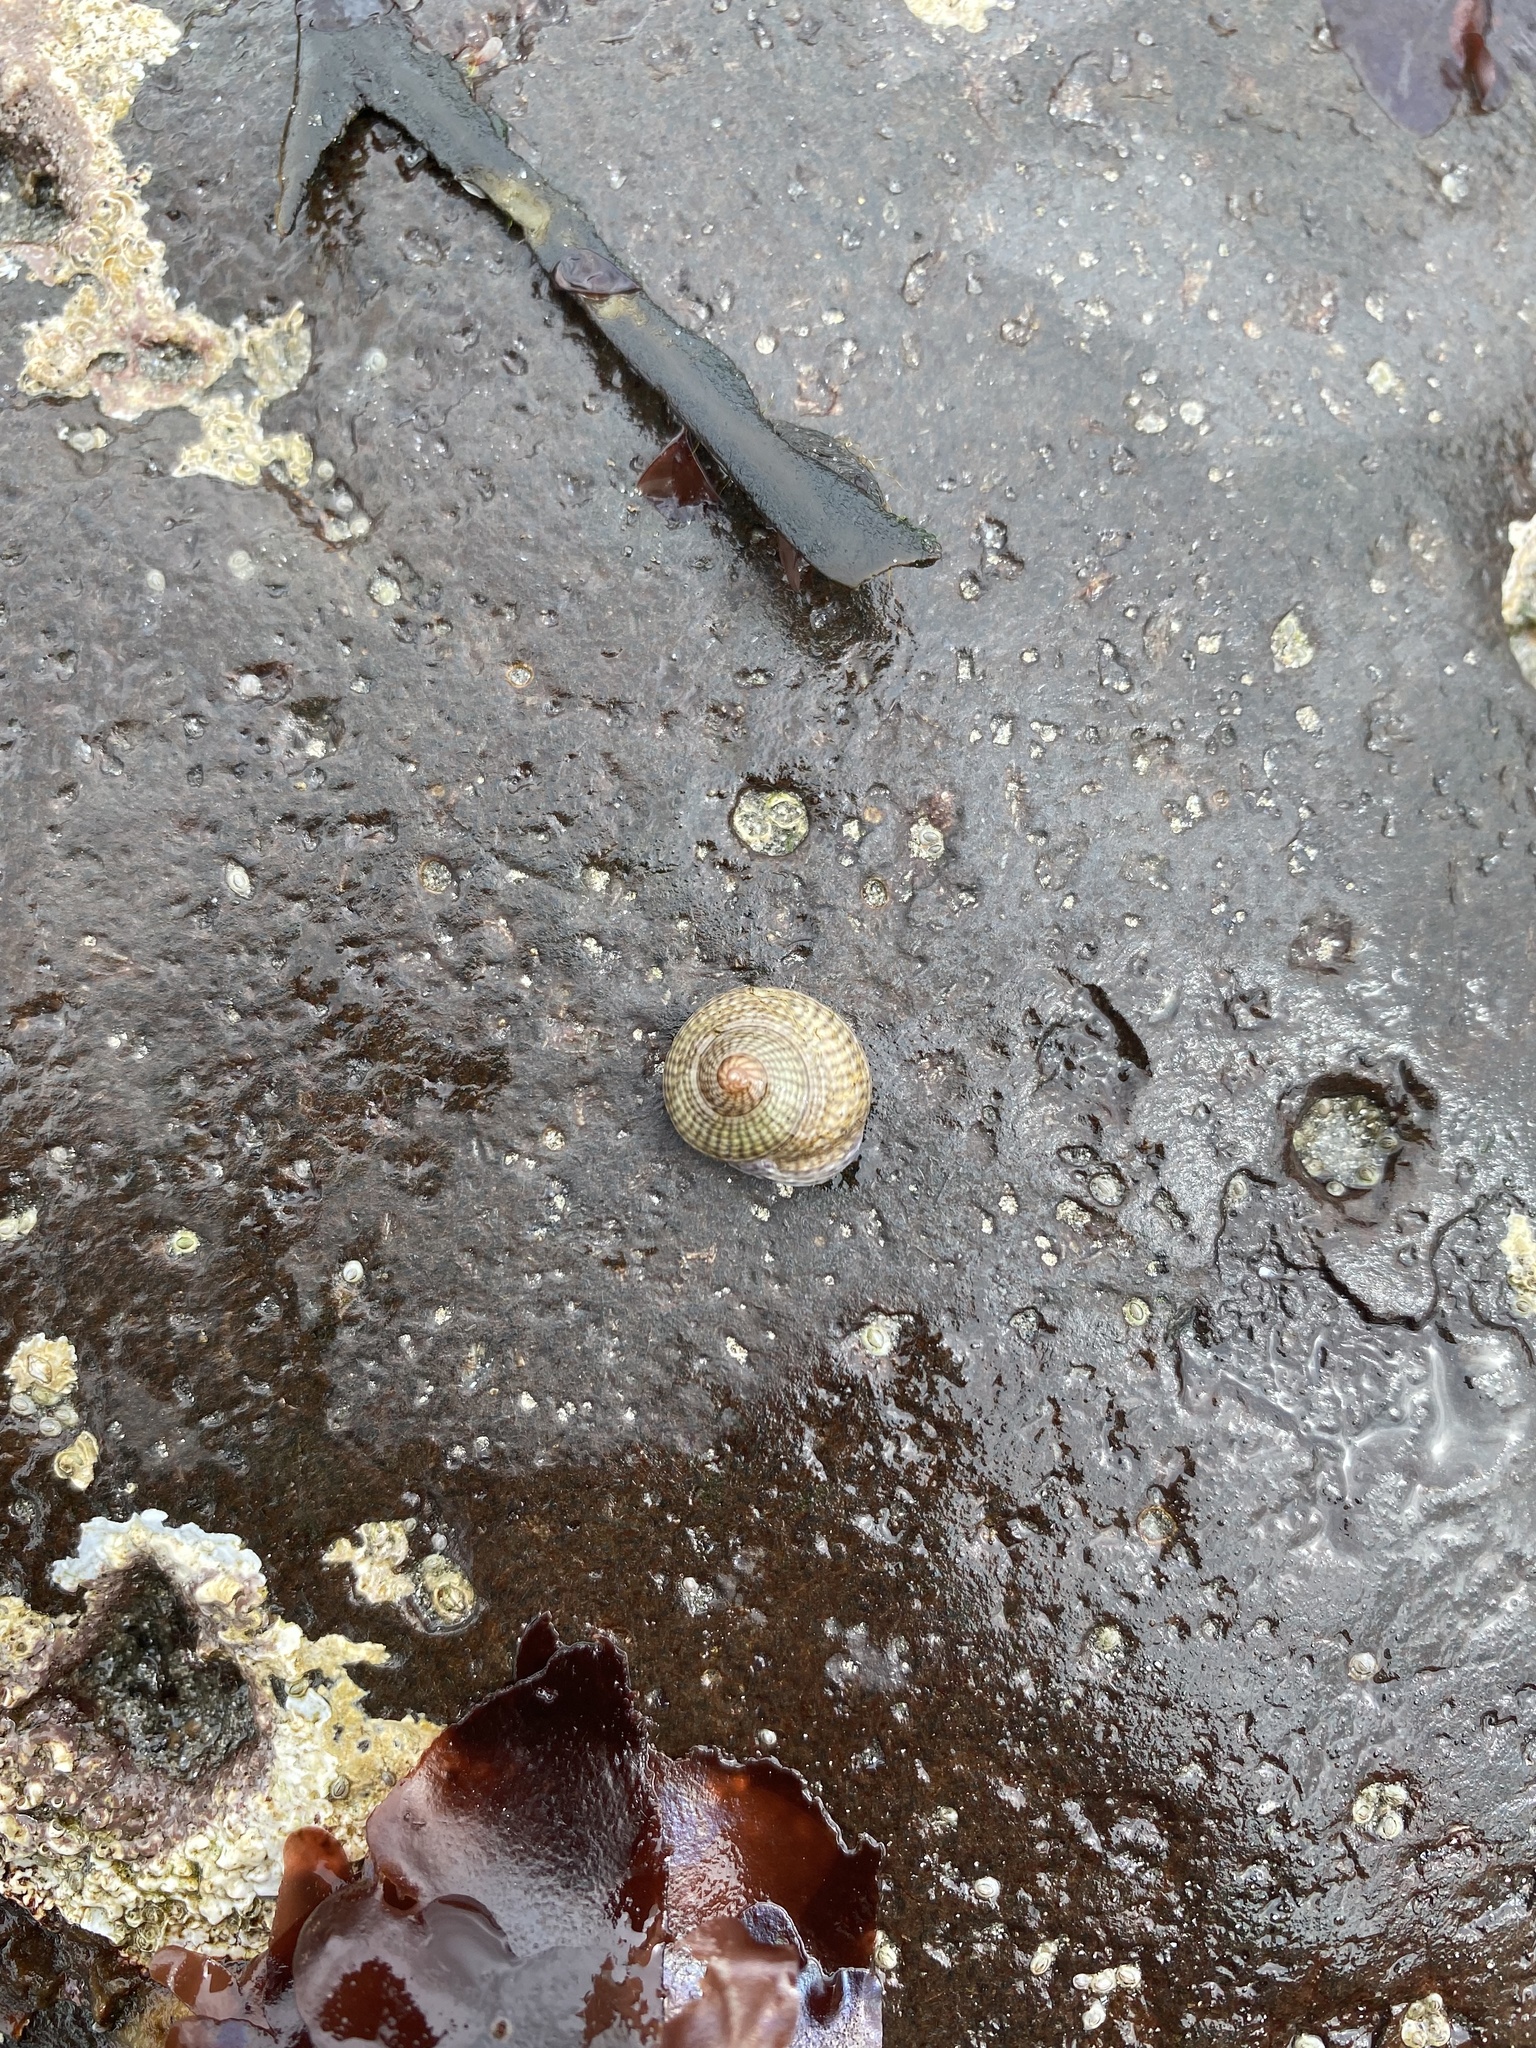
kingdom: Animalia
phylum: Mollusca
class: Gastropoda
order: Trochida
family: Trochidae
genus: Steromphala
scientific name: Steromphala cineraria
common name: Grey top shell
